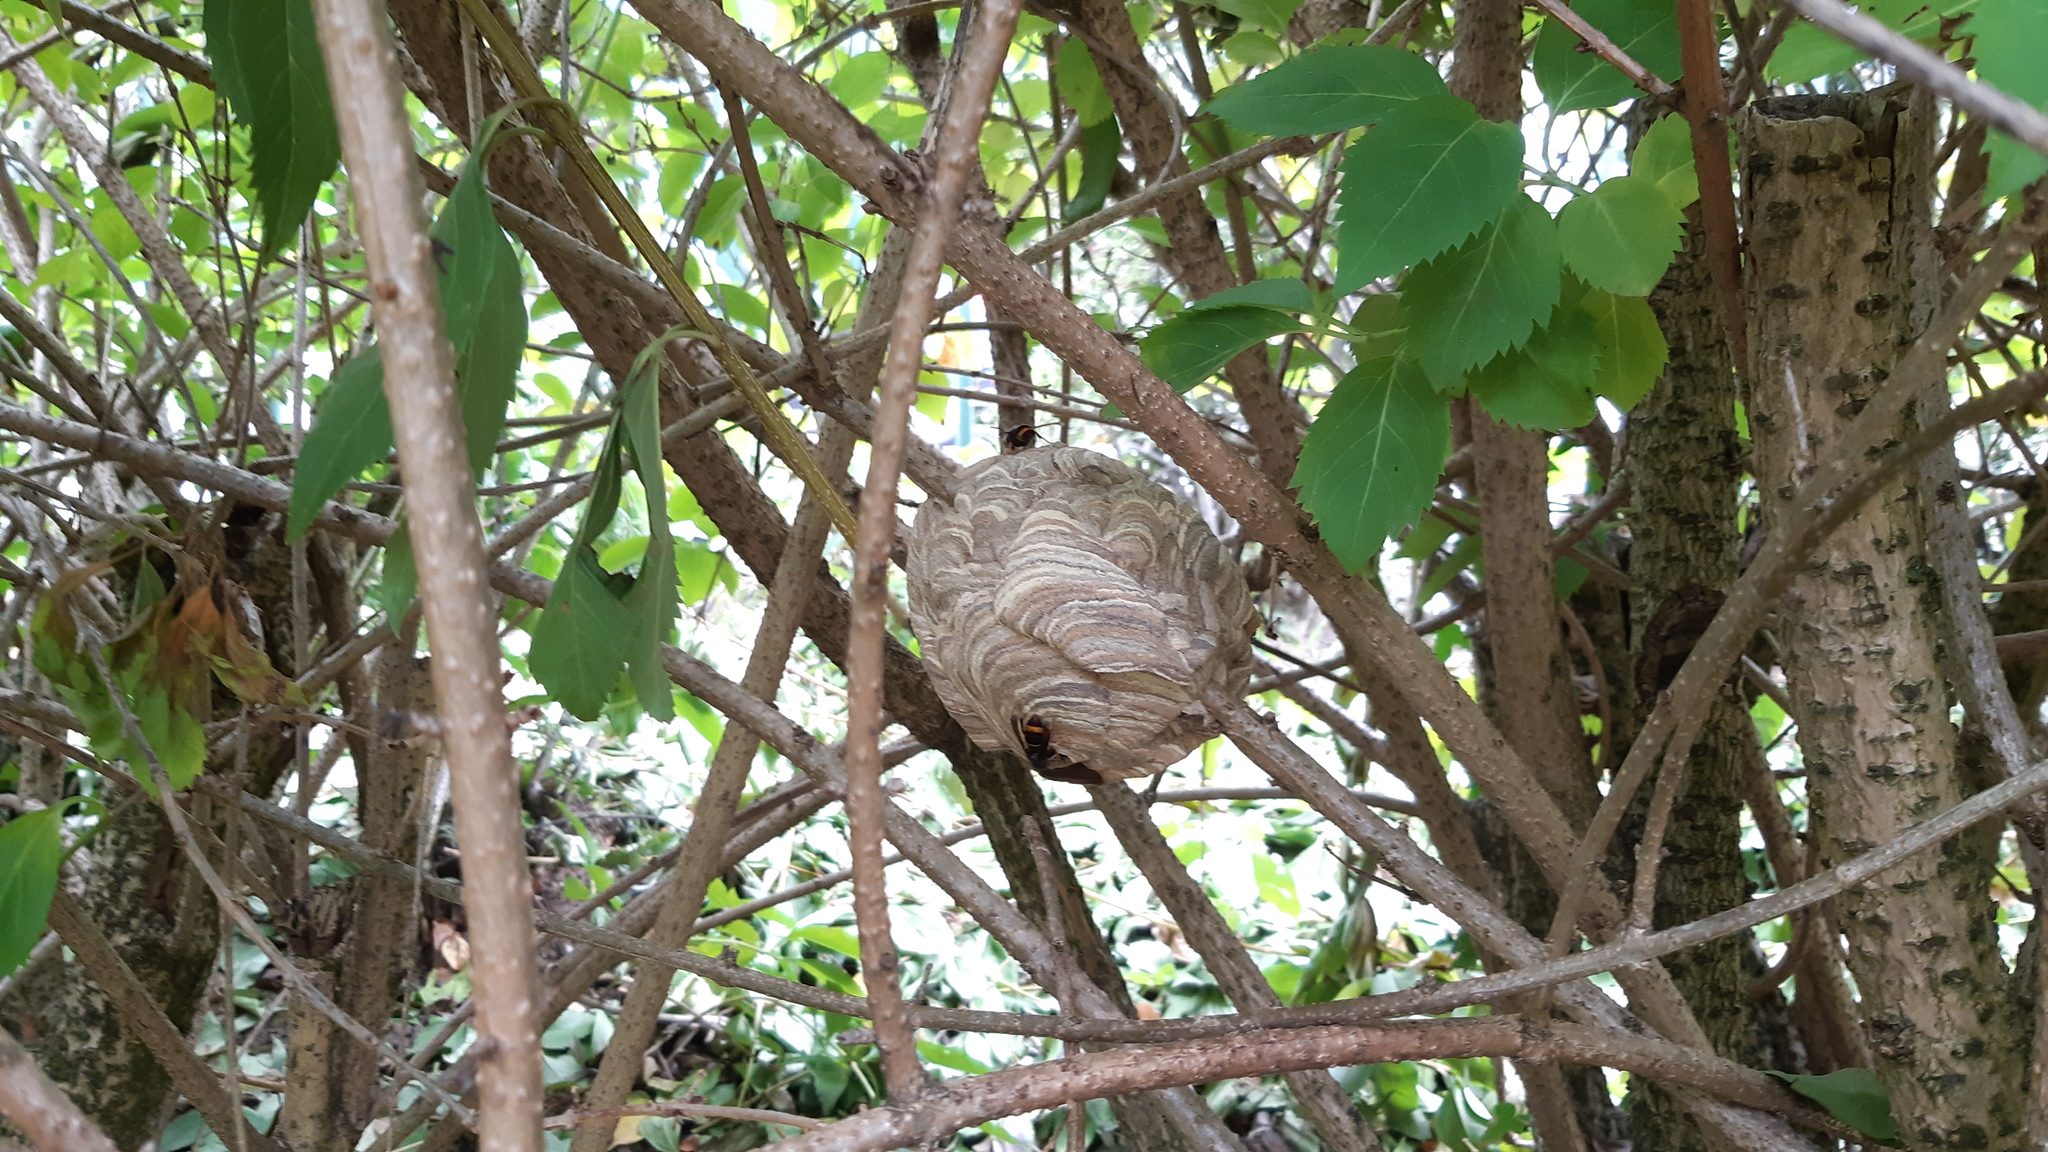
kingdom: Animalia
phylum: Arthropoda
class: Insecta
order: Hymenoptera
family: Vespidae
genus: Vespa
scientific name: Vespa velutina
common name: Asian hornet
